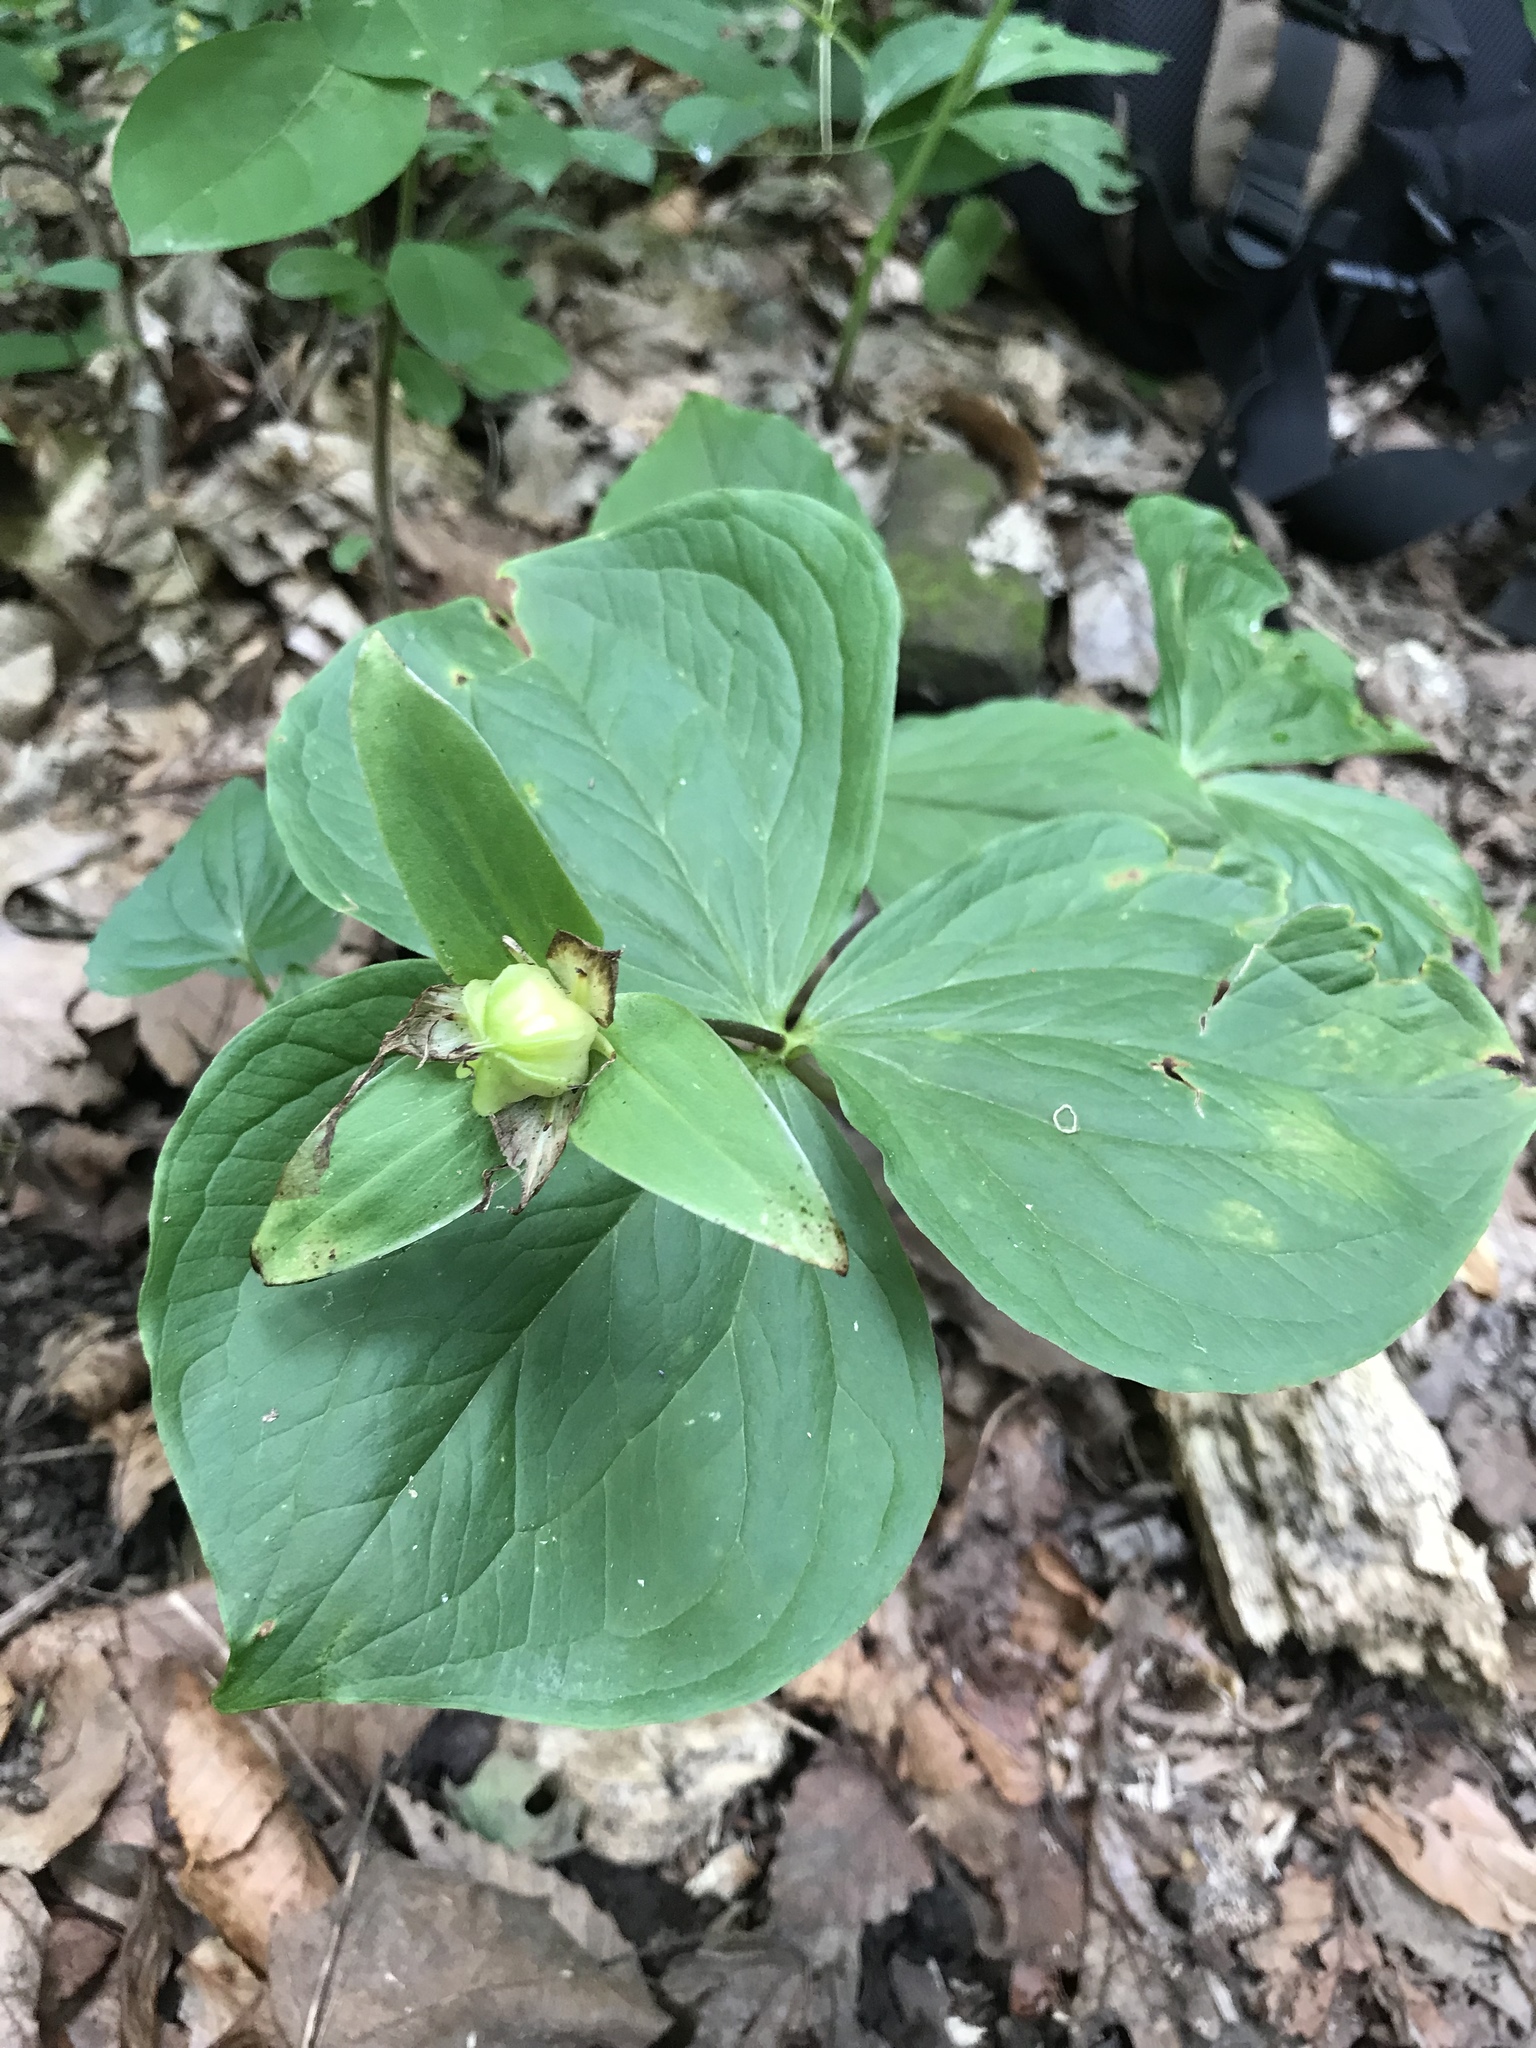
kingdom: Plantae
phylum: Tracheophyta
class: Liliopsida
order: Liliales
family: Melanthiaceae
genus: Trillium
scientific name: Trillium grandiflorum
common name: Great white trillium
